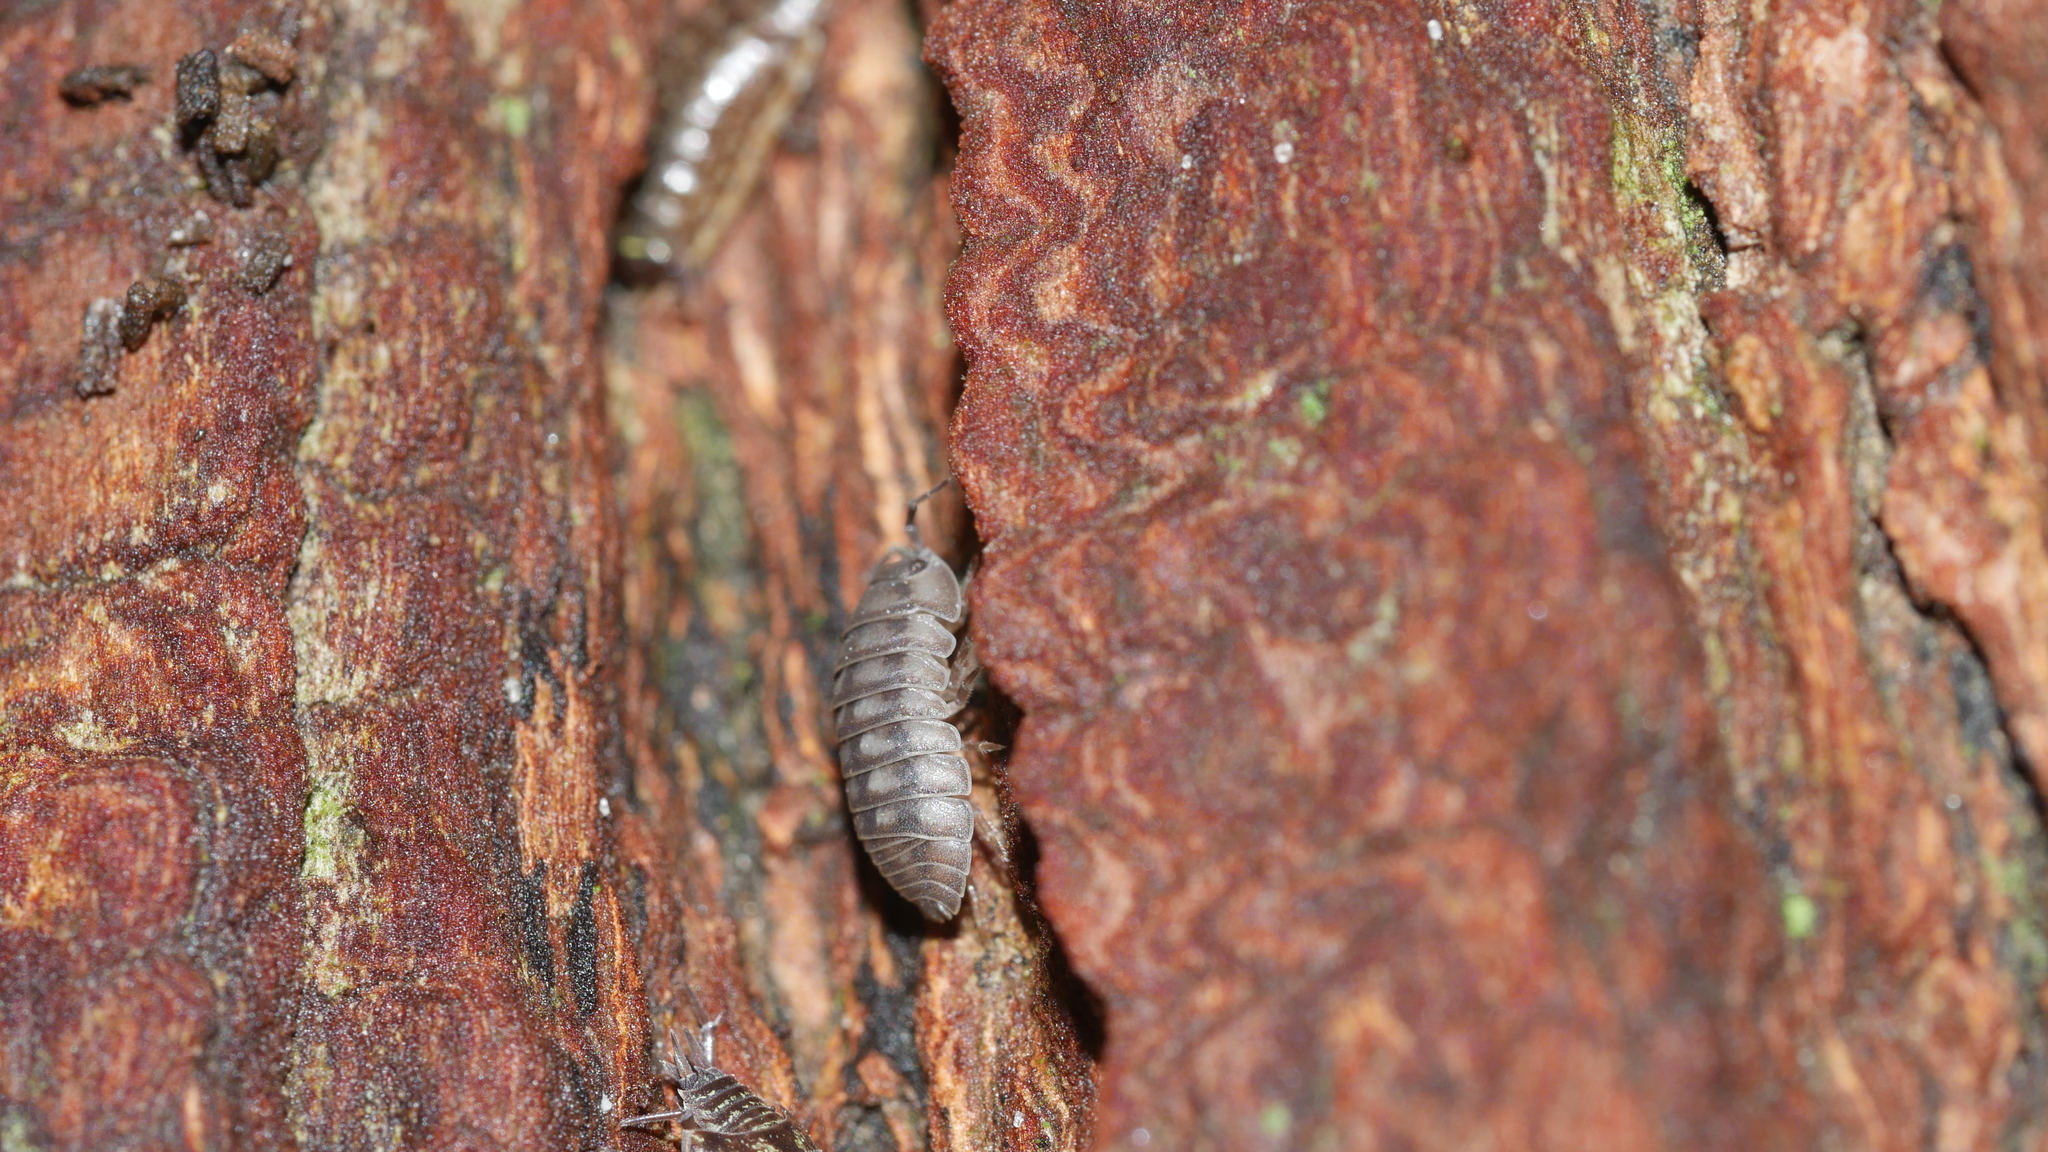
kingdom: Animalia
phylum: Arthropoda
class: Malacostraca
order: Isopoda
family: Armadillidiidae
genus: Armadillidium
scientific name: Armadillidium nasatum
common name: Isopod
